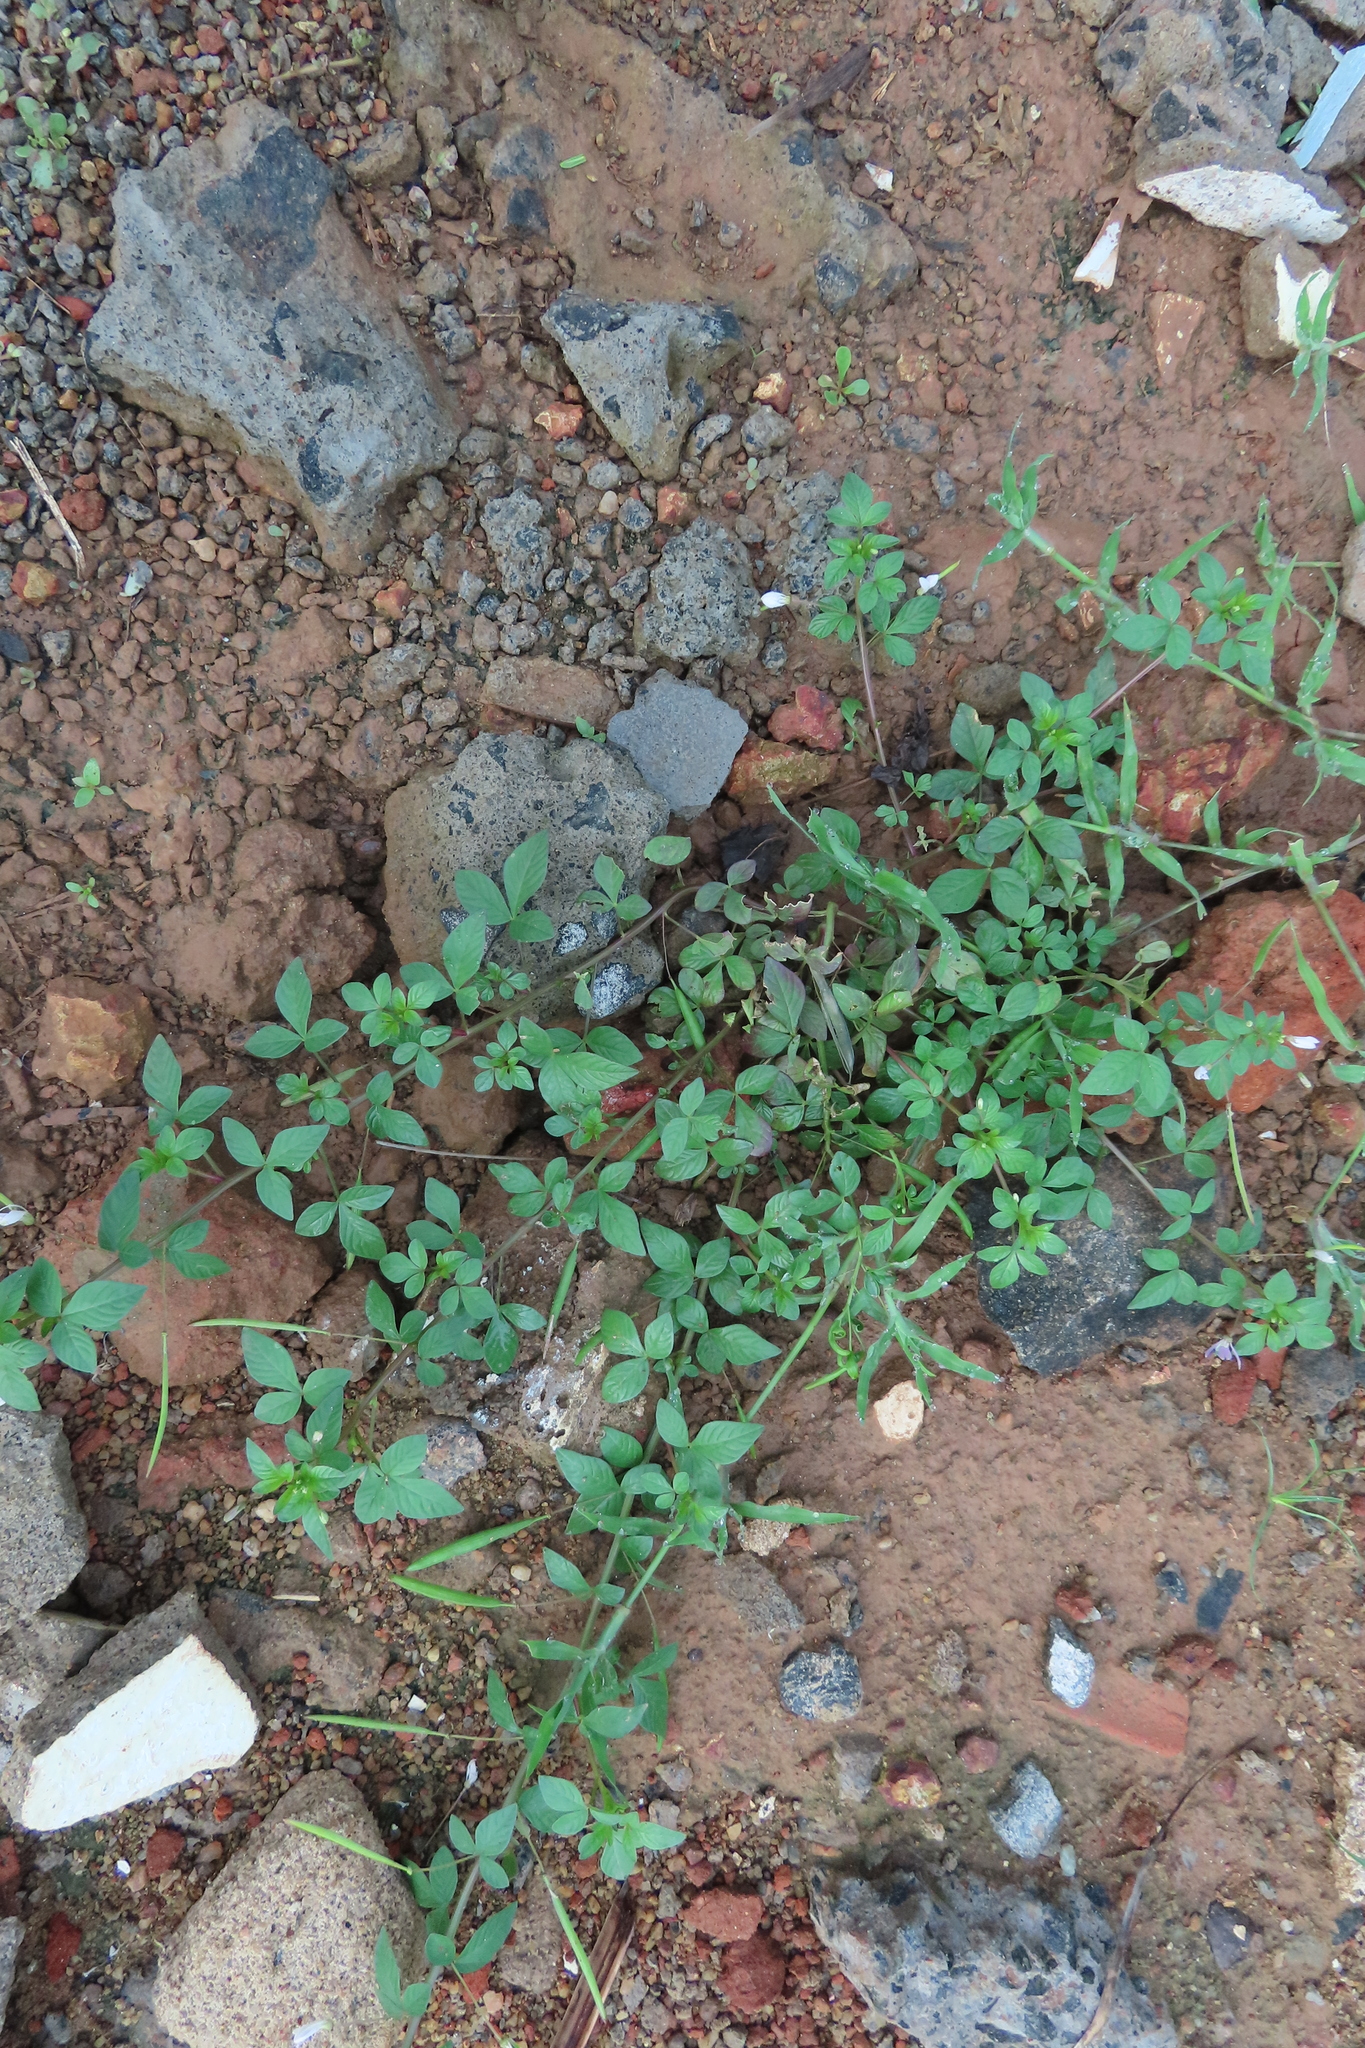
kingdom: Plantae
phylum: Tracheophyta
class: Magnoliopsida
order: Brassicales
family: Cleomaceae
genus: Sieruela
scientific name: Sieruela rutidosperma
